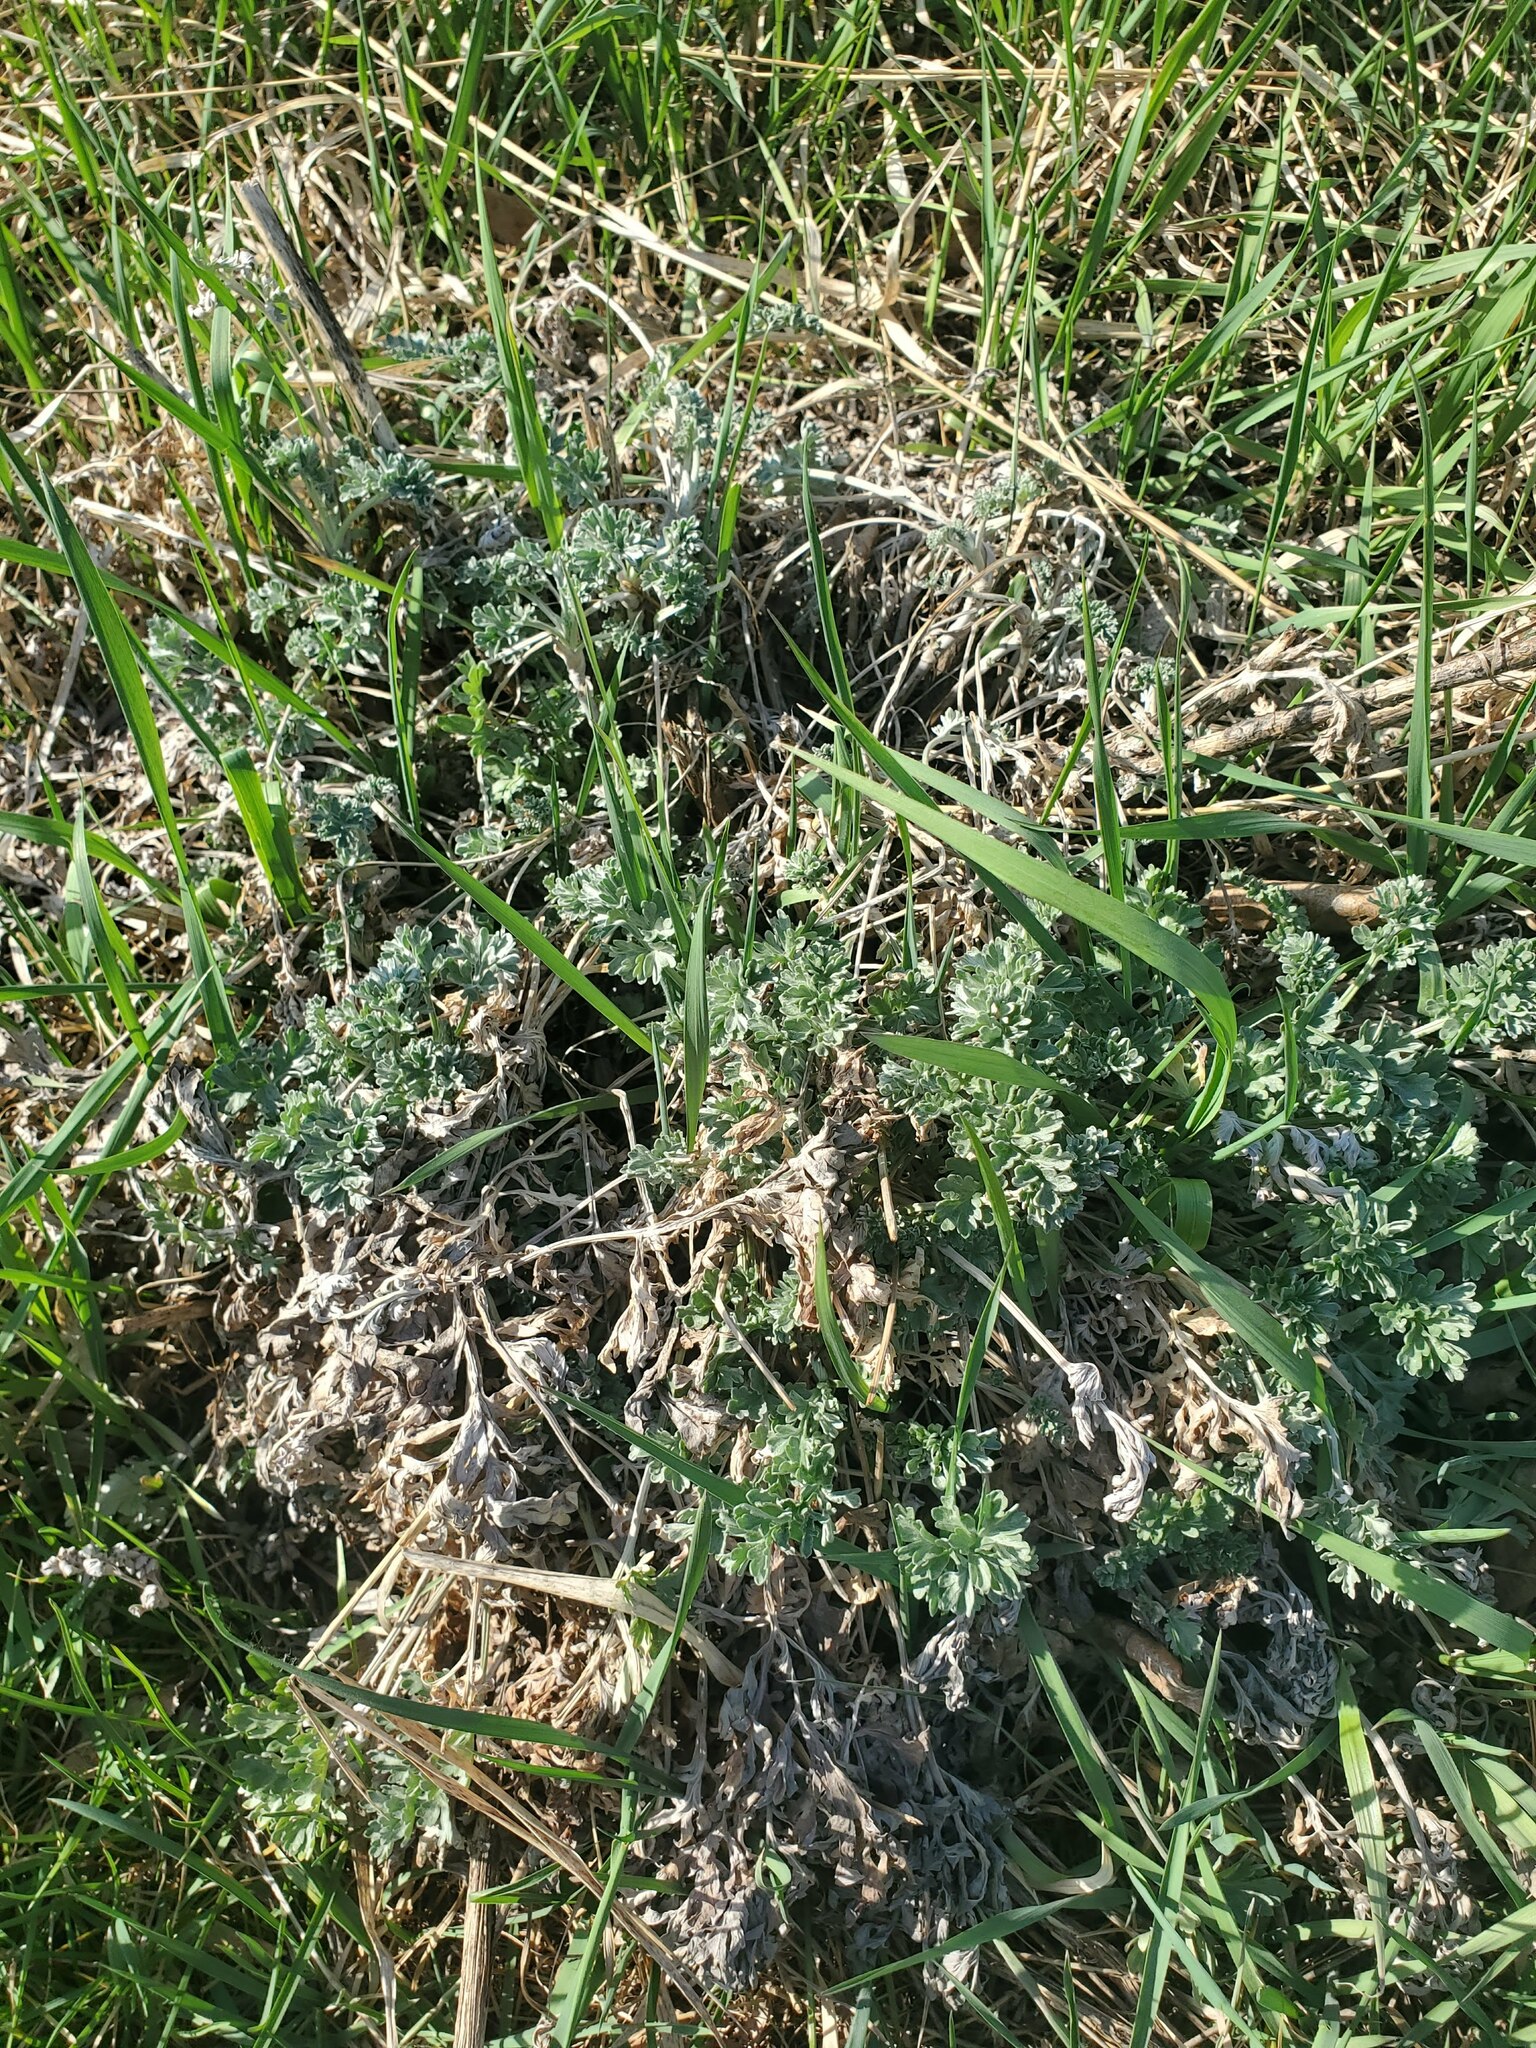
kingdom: Plantae
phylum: Tracheophyta
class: Magnoliopsida
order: Asterales
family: Asteraceae
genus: Artemisia
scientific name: Artemisia absinthium
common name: Wormwood
